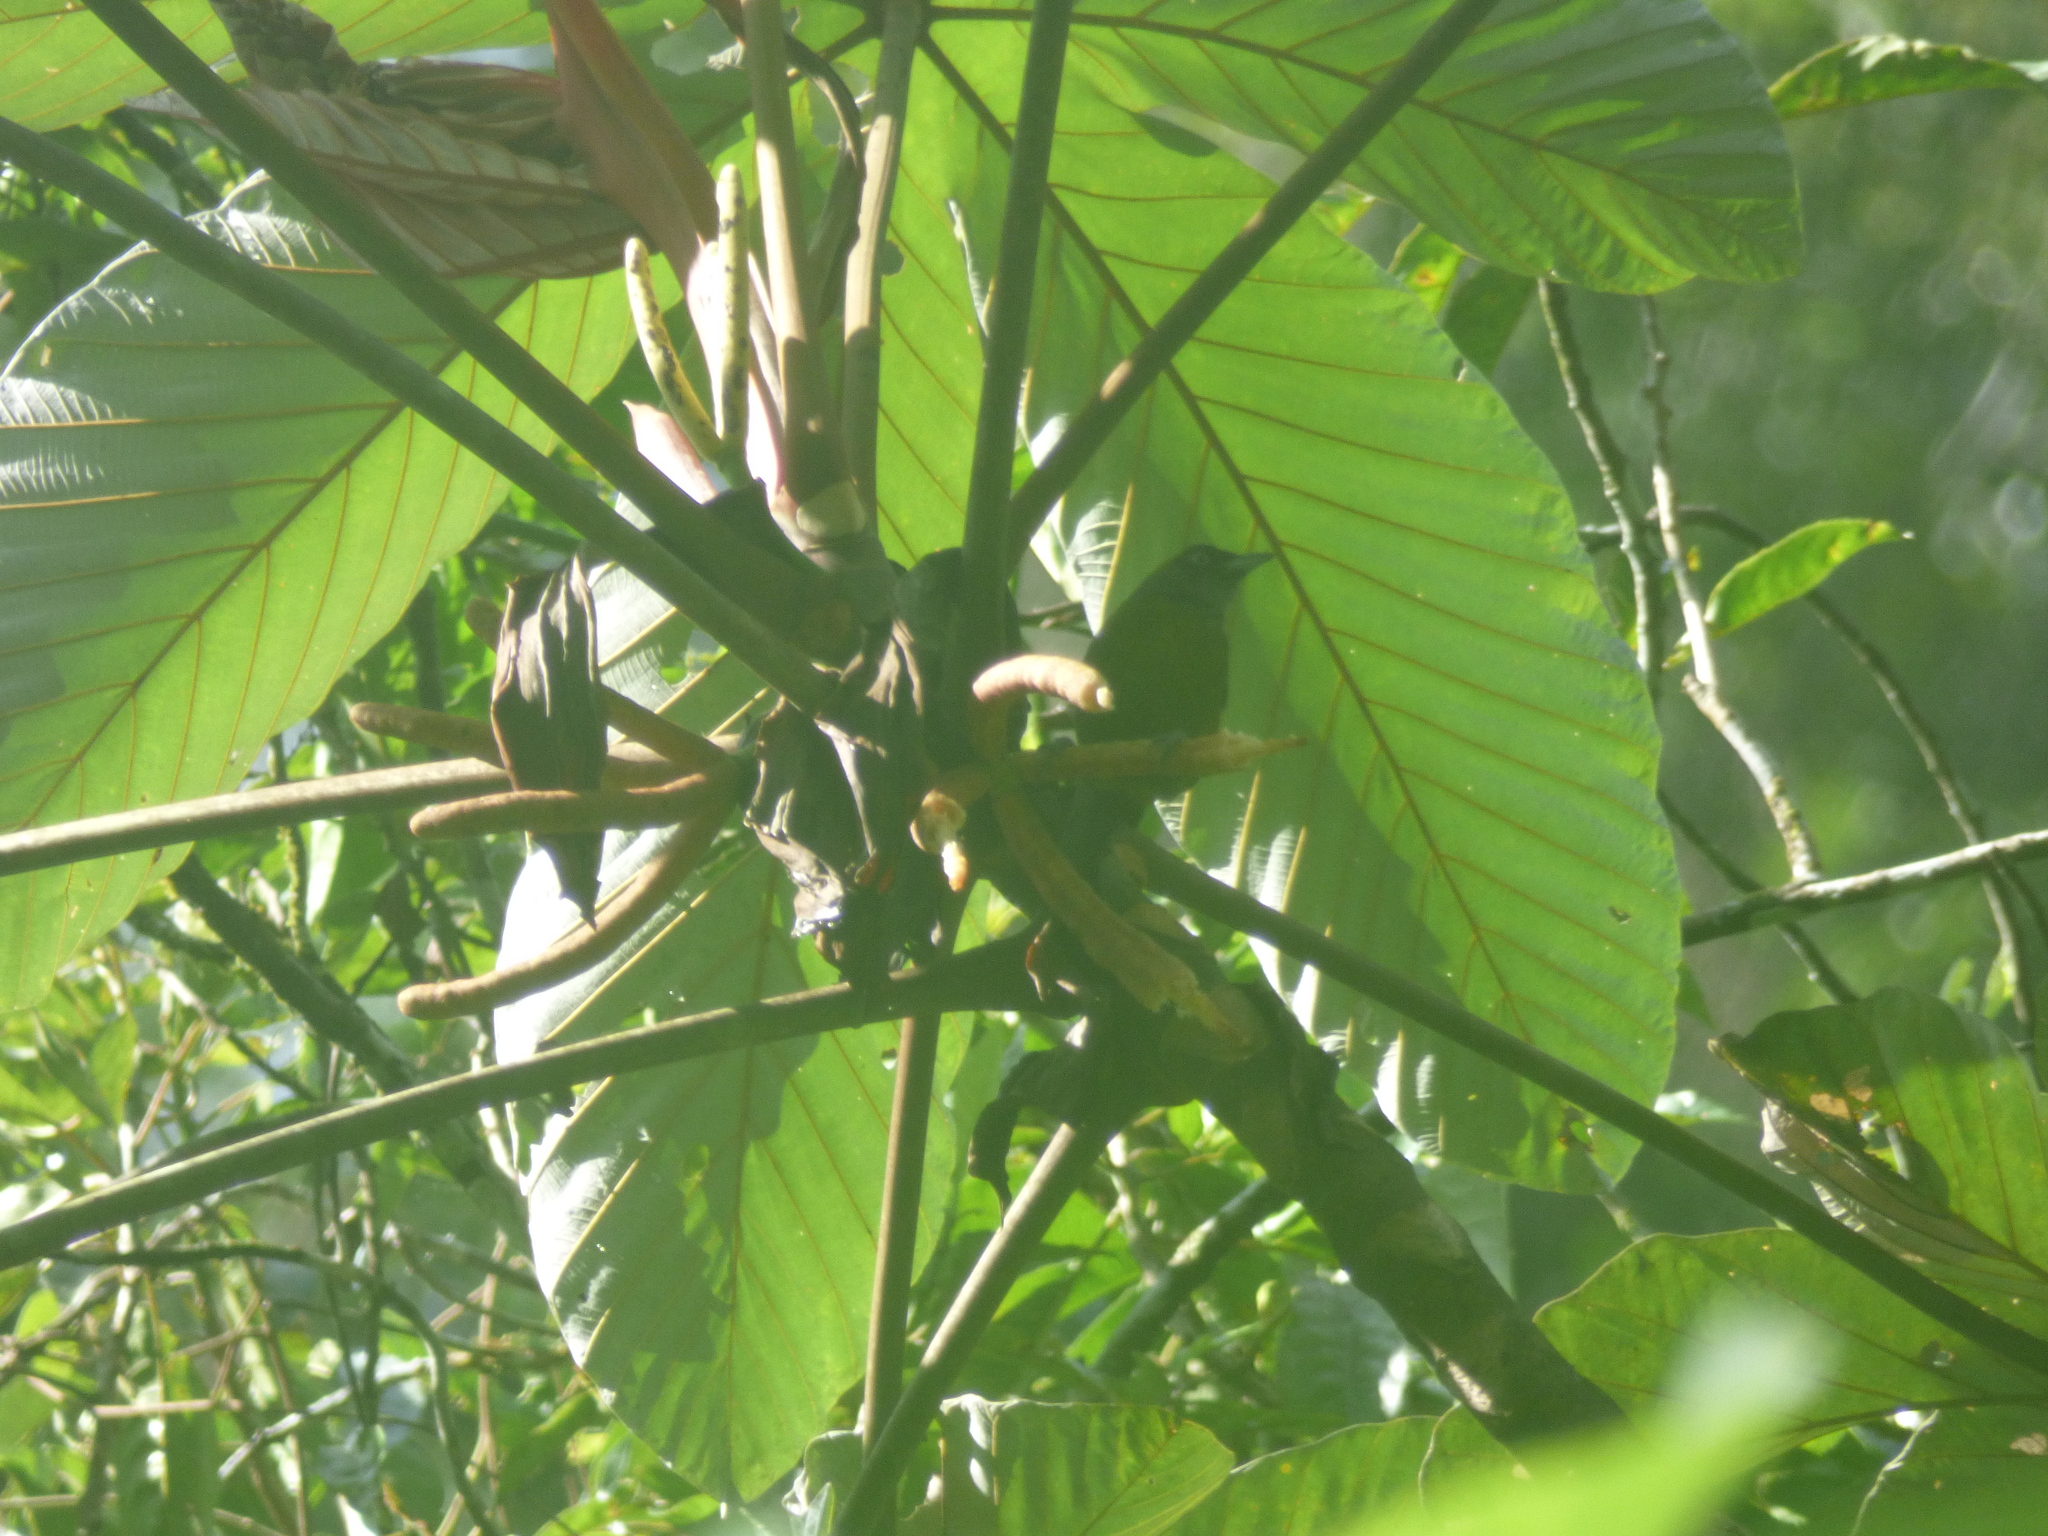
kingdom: Animalia
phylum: Chordata
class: Aves
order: Passeriformes
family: Mitrospingidae
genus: Mitrospingus
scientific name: Mitrospingus cassinii
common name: Dusky-faced tanager
